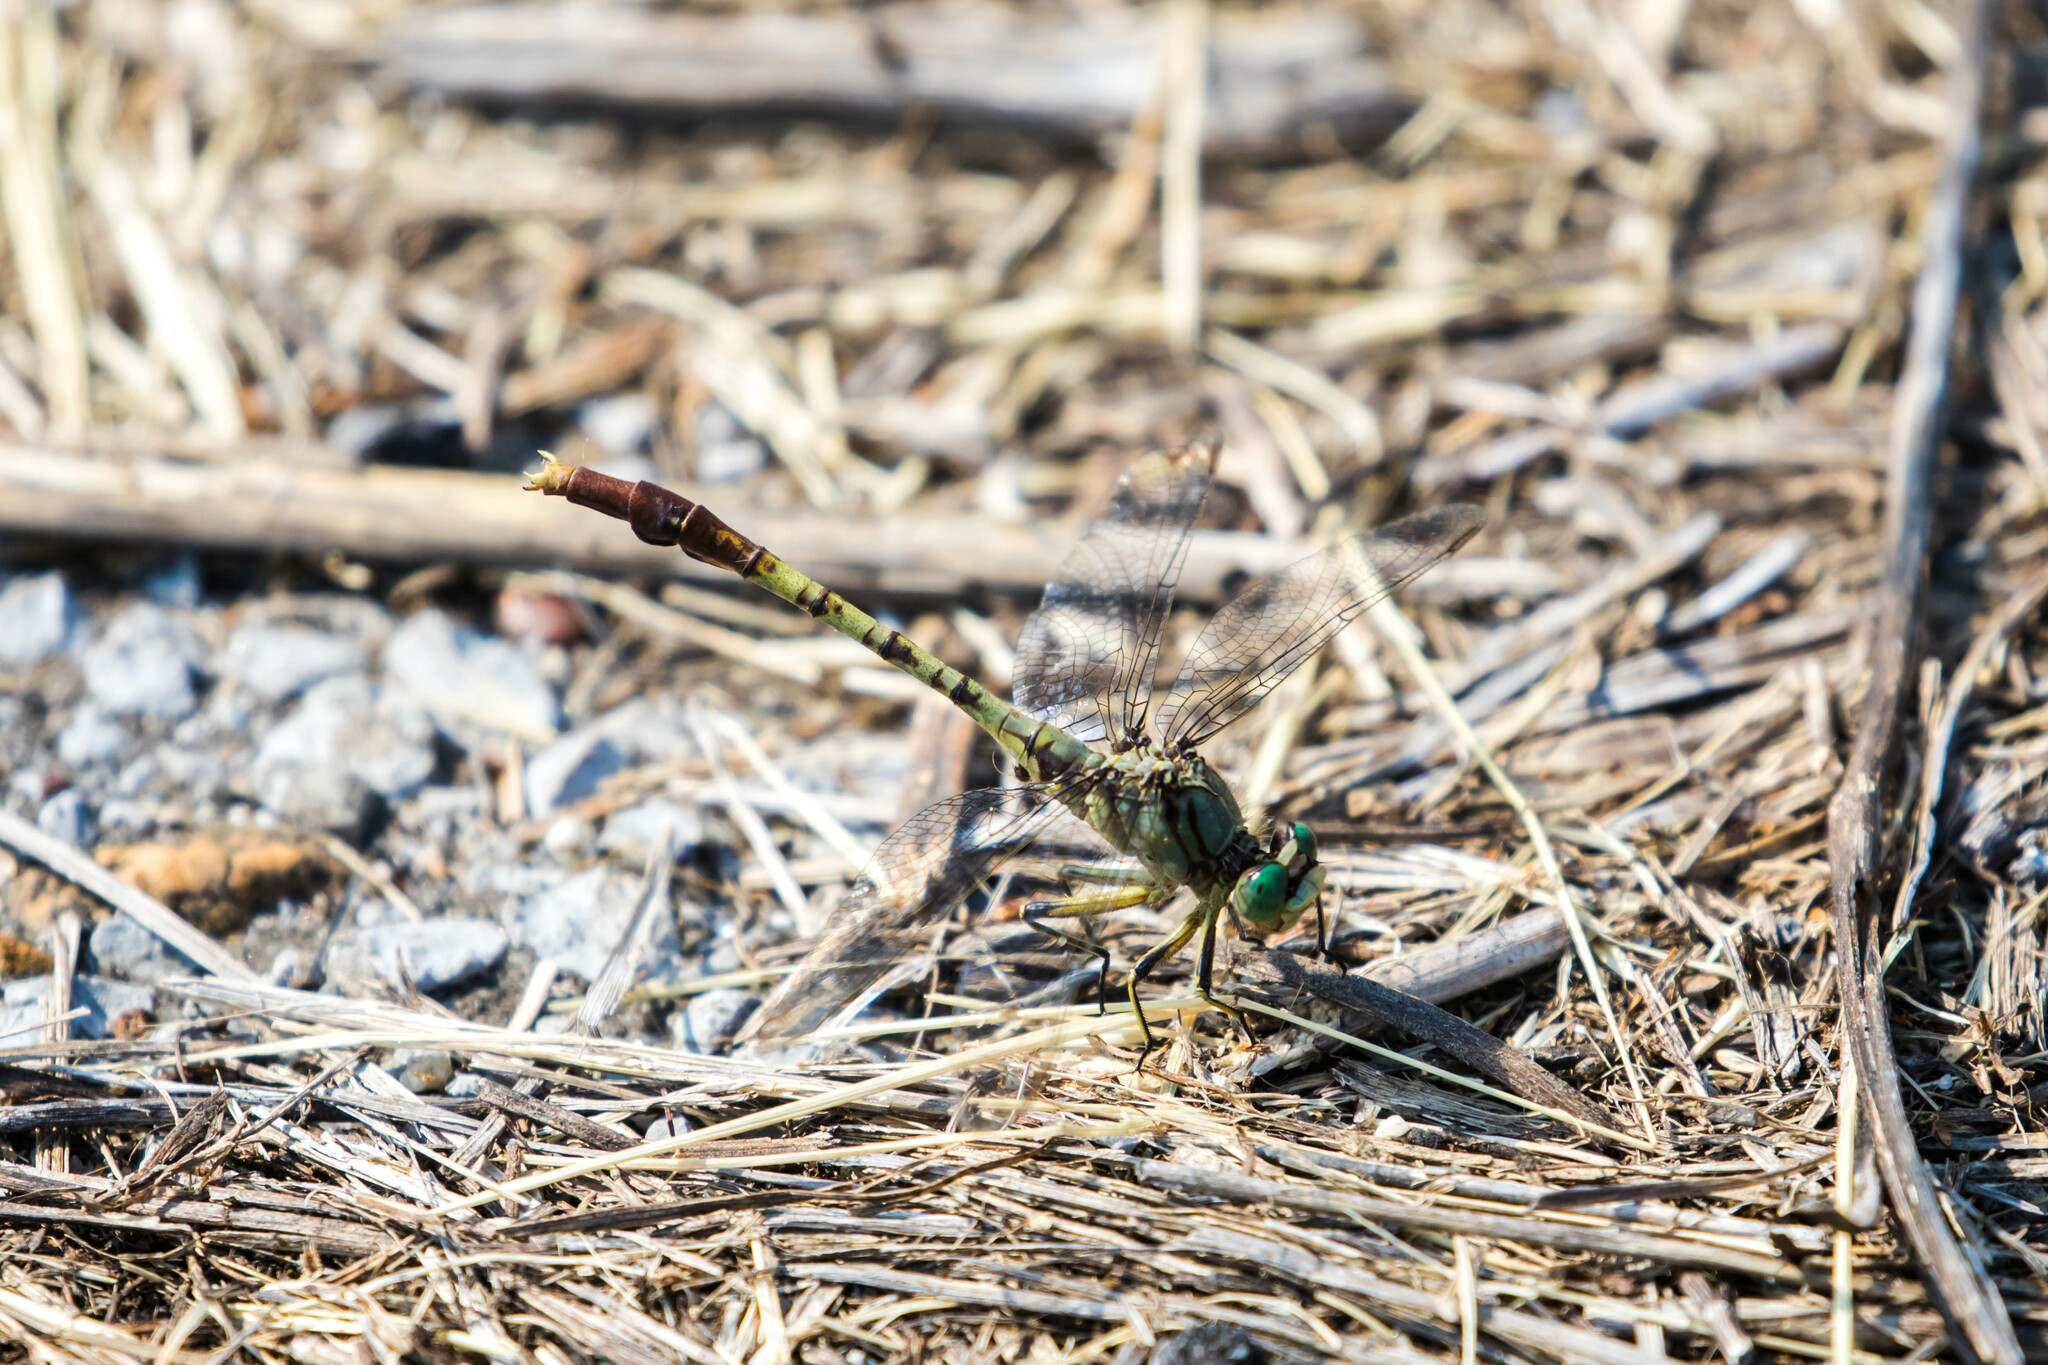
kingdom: Animalia
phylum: Arthropoda
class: Insecta
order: Odonata
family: Gomphidae
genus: Arigomphus
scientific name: Arigomphus submedianus
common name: Jade clubtail
